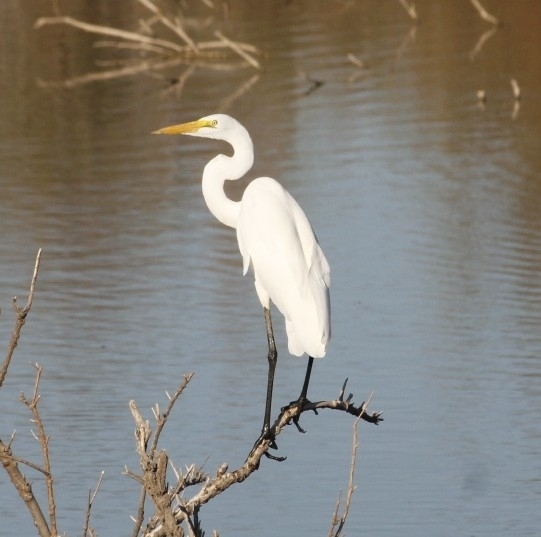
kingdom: Animalia
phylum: Chordata
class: Aves
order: Pelecaniformes
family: Ardeidae
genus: Ardea
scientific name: Ardea alba
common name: Great egret
